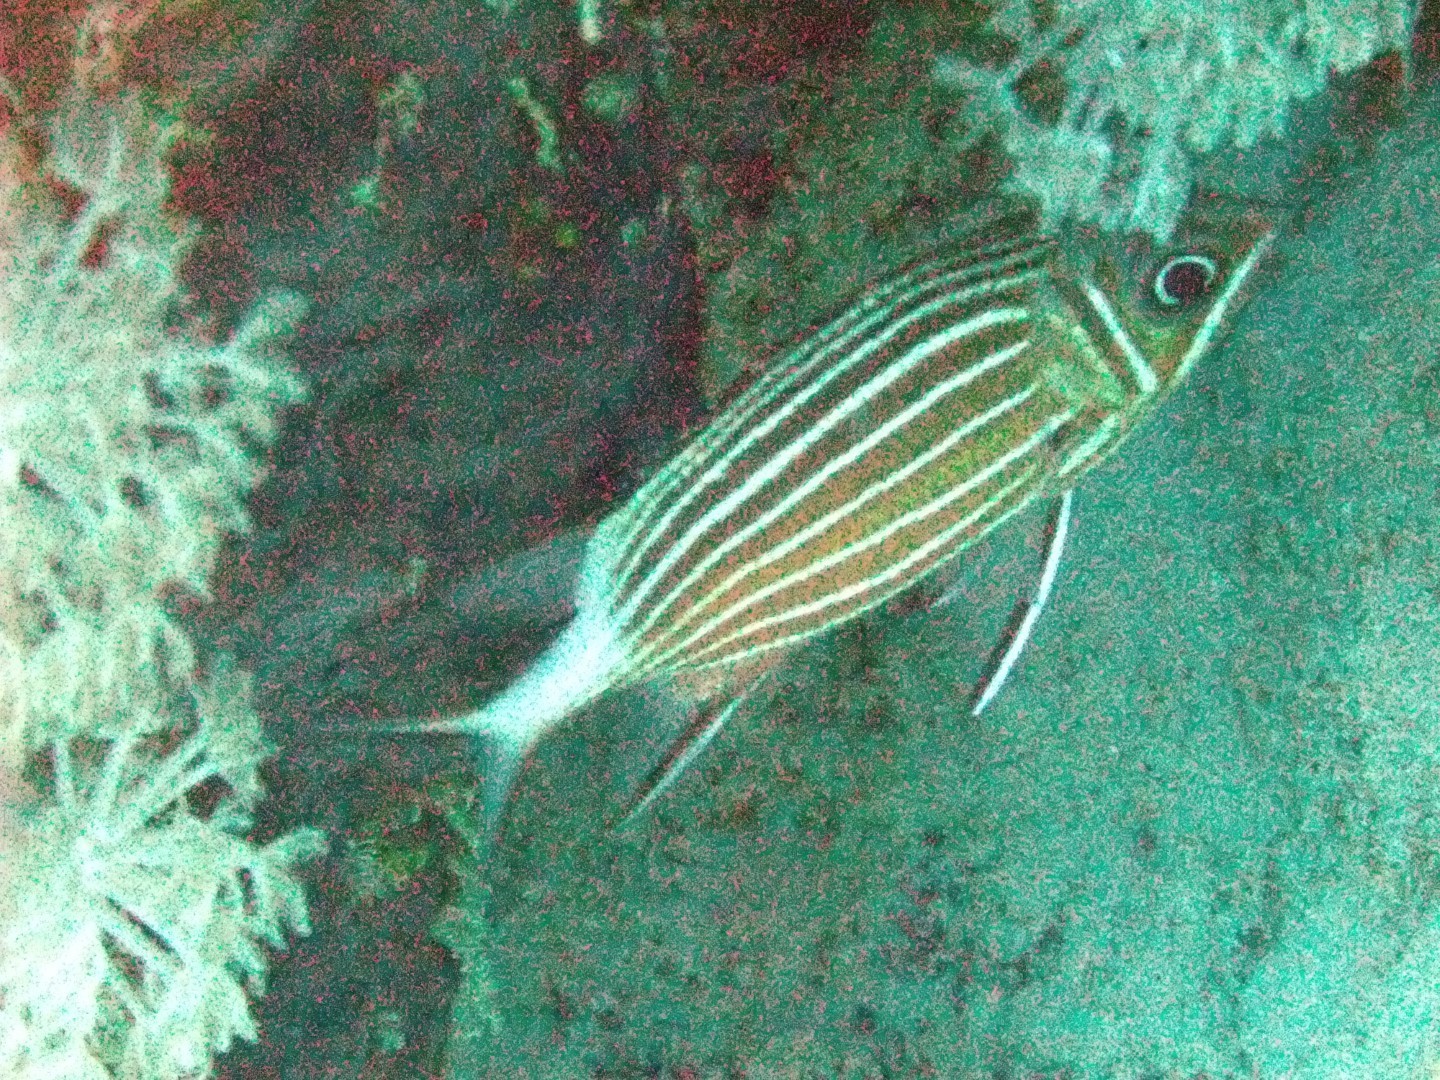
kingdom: Animalia
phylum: Chordata
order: Beryciformes
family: Holocentridae
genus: Sargocentron
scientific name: Sargocentron diadema
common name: Crown squirrelfish
